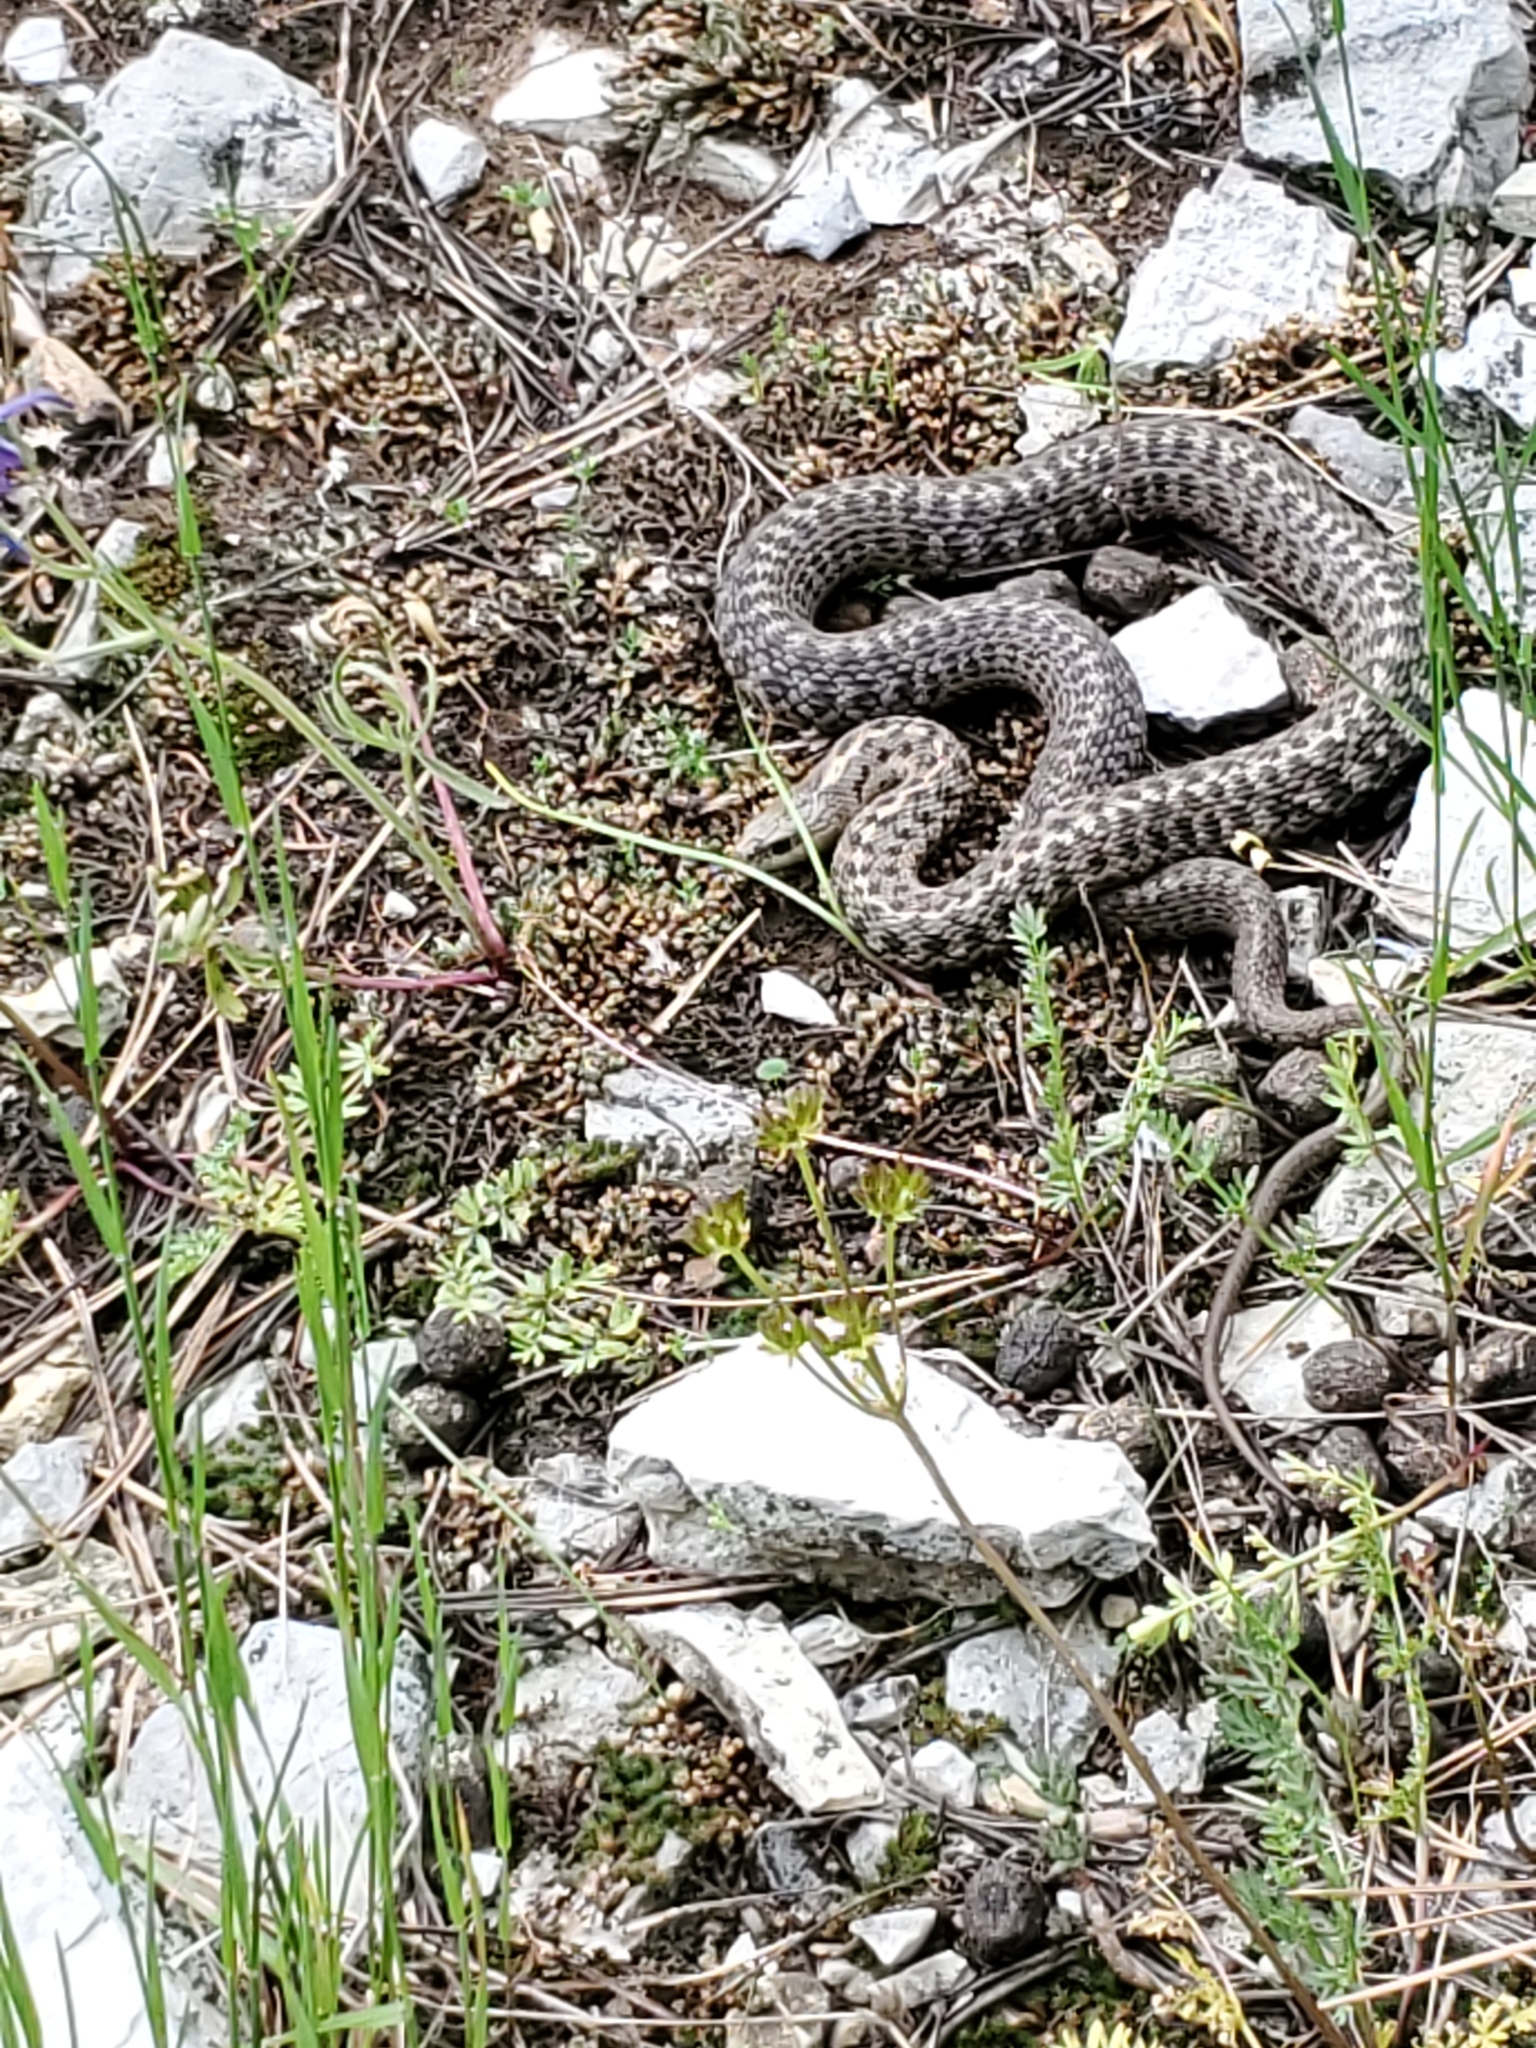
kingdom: Animalia
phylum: Chordata
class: Squamata
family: Colubridae
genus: Thamnophis
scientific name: Thamnophis elegans
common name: Western terrestrial garter snake
